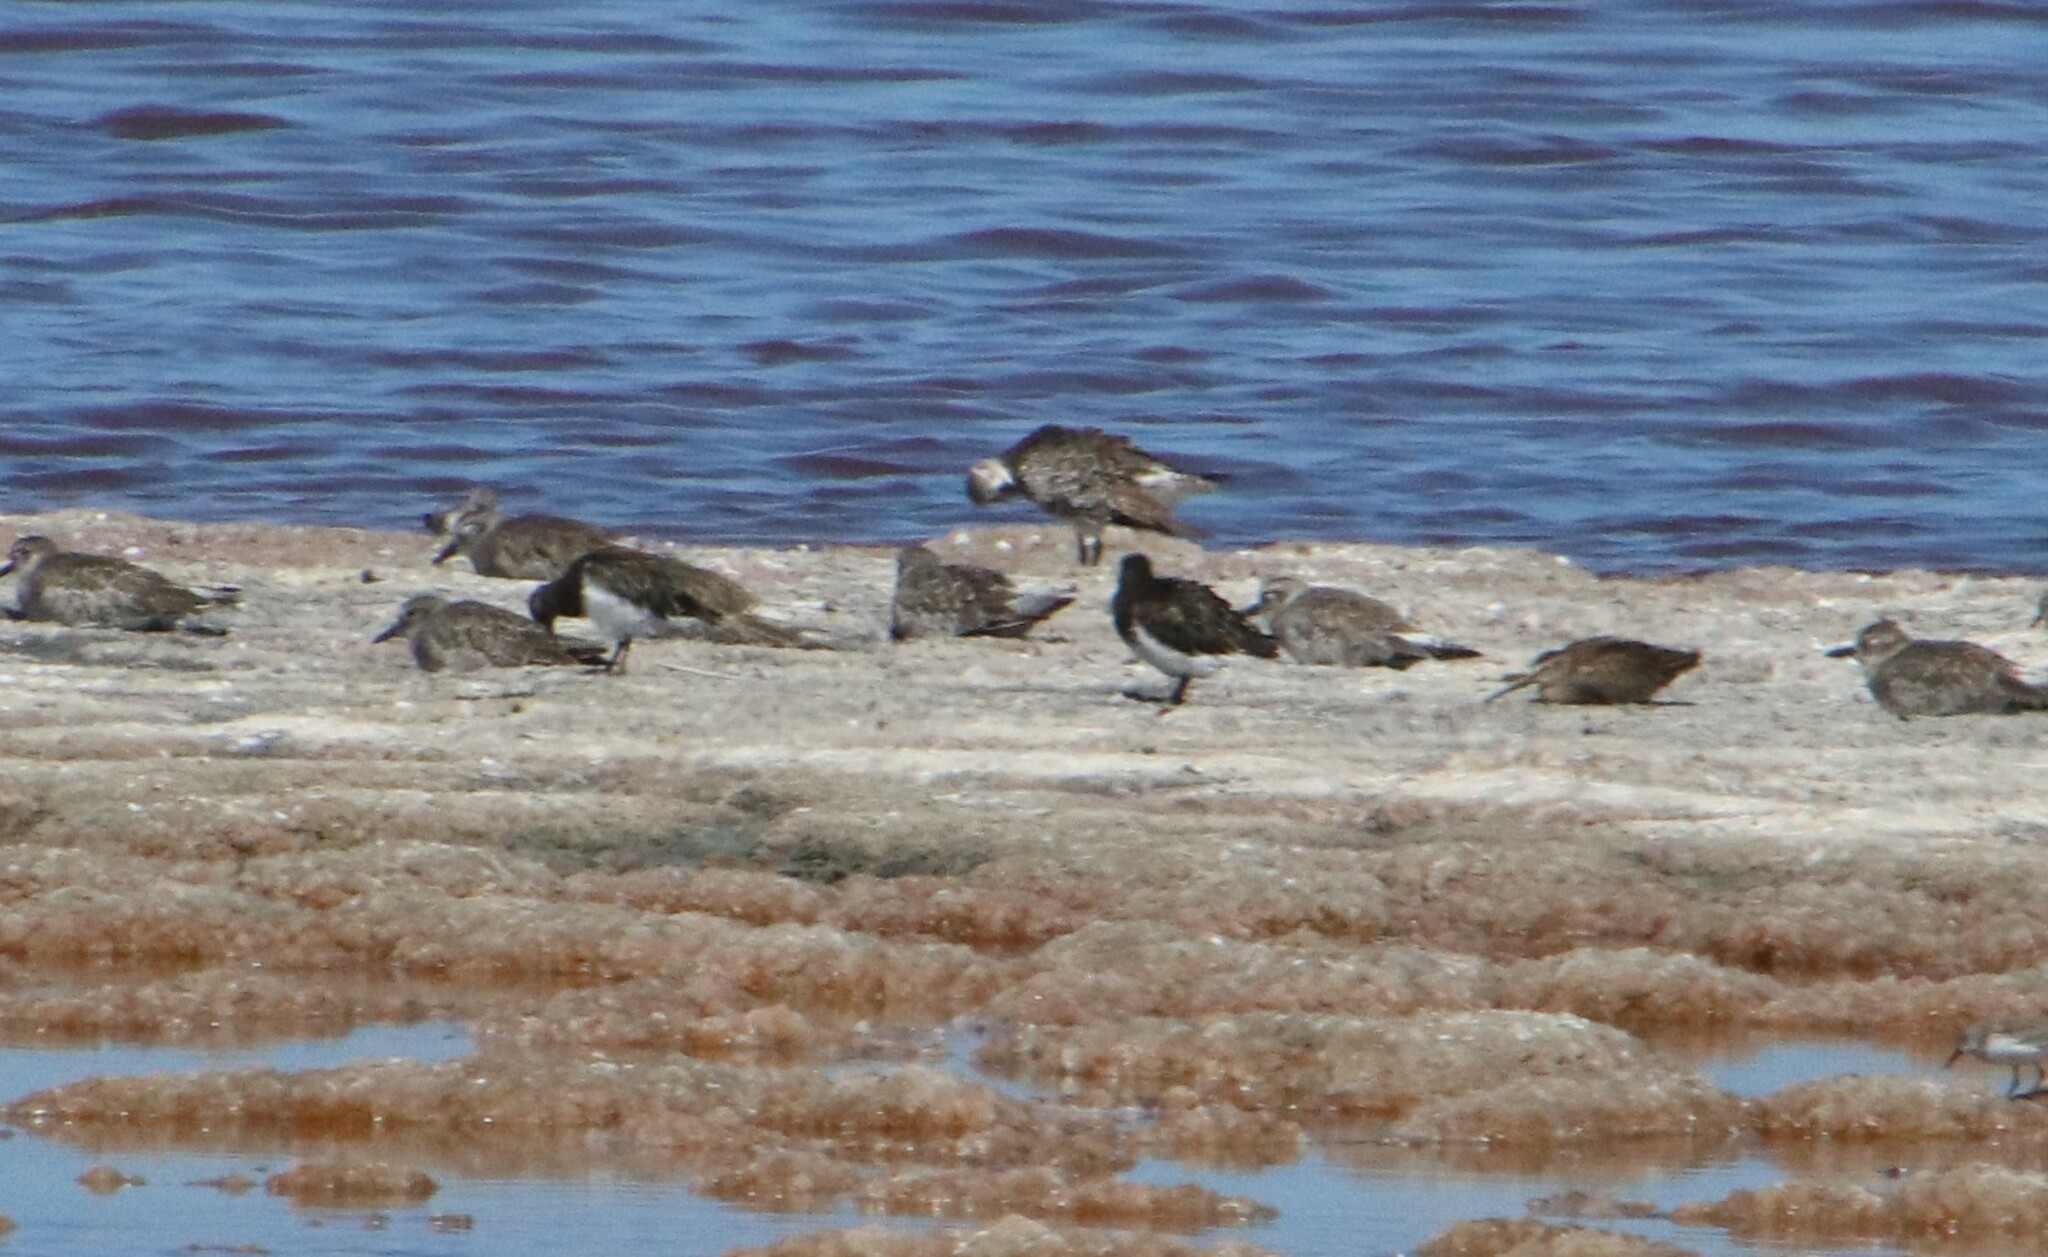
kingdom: Animalia
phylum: Chordata
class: Aves
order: Charadriiformes
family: Scolopacidae
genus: Arenaria
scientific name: Arenaria melanocephala
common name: Black turnstone
